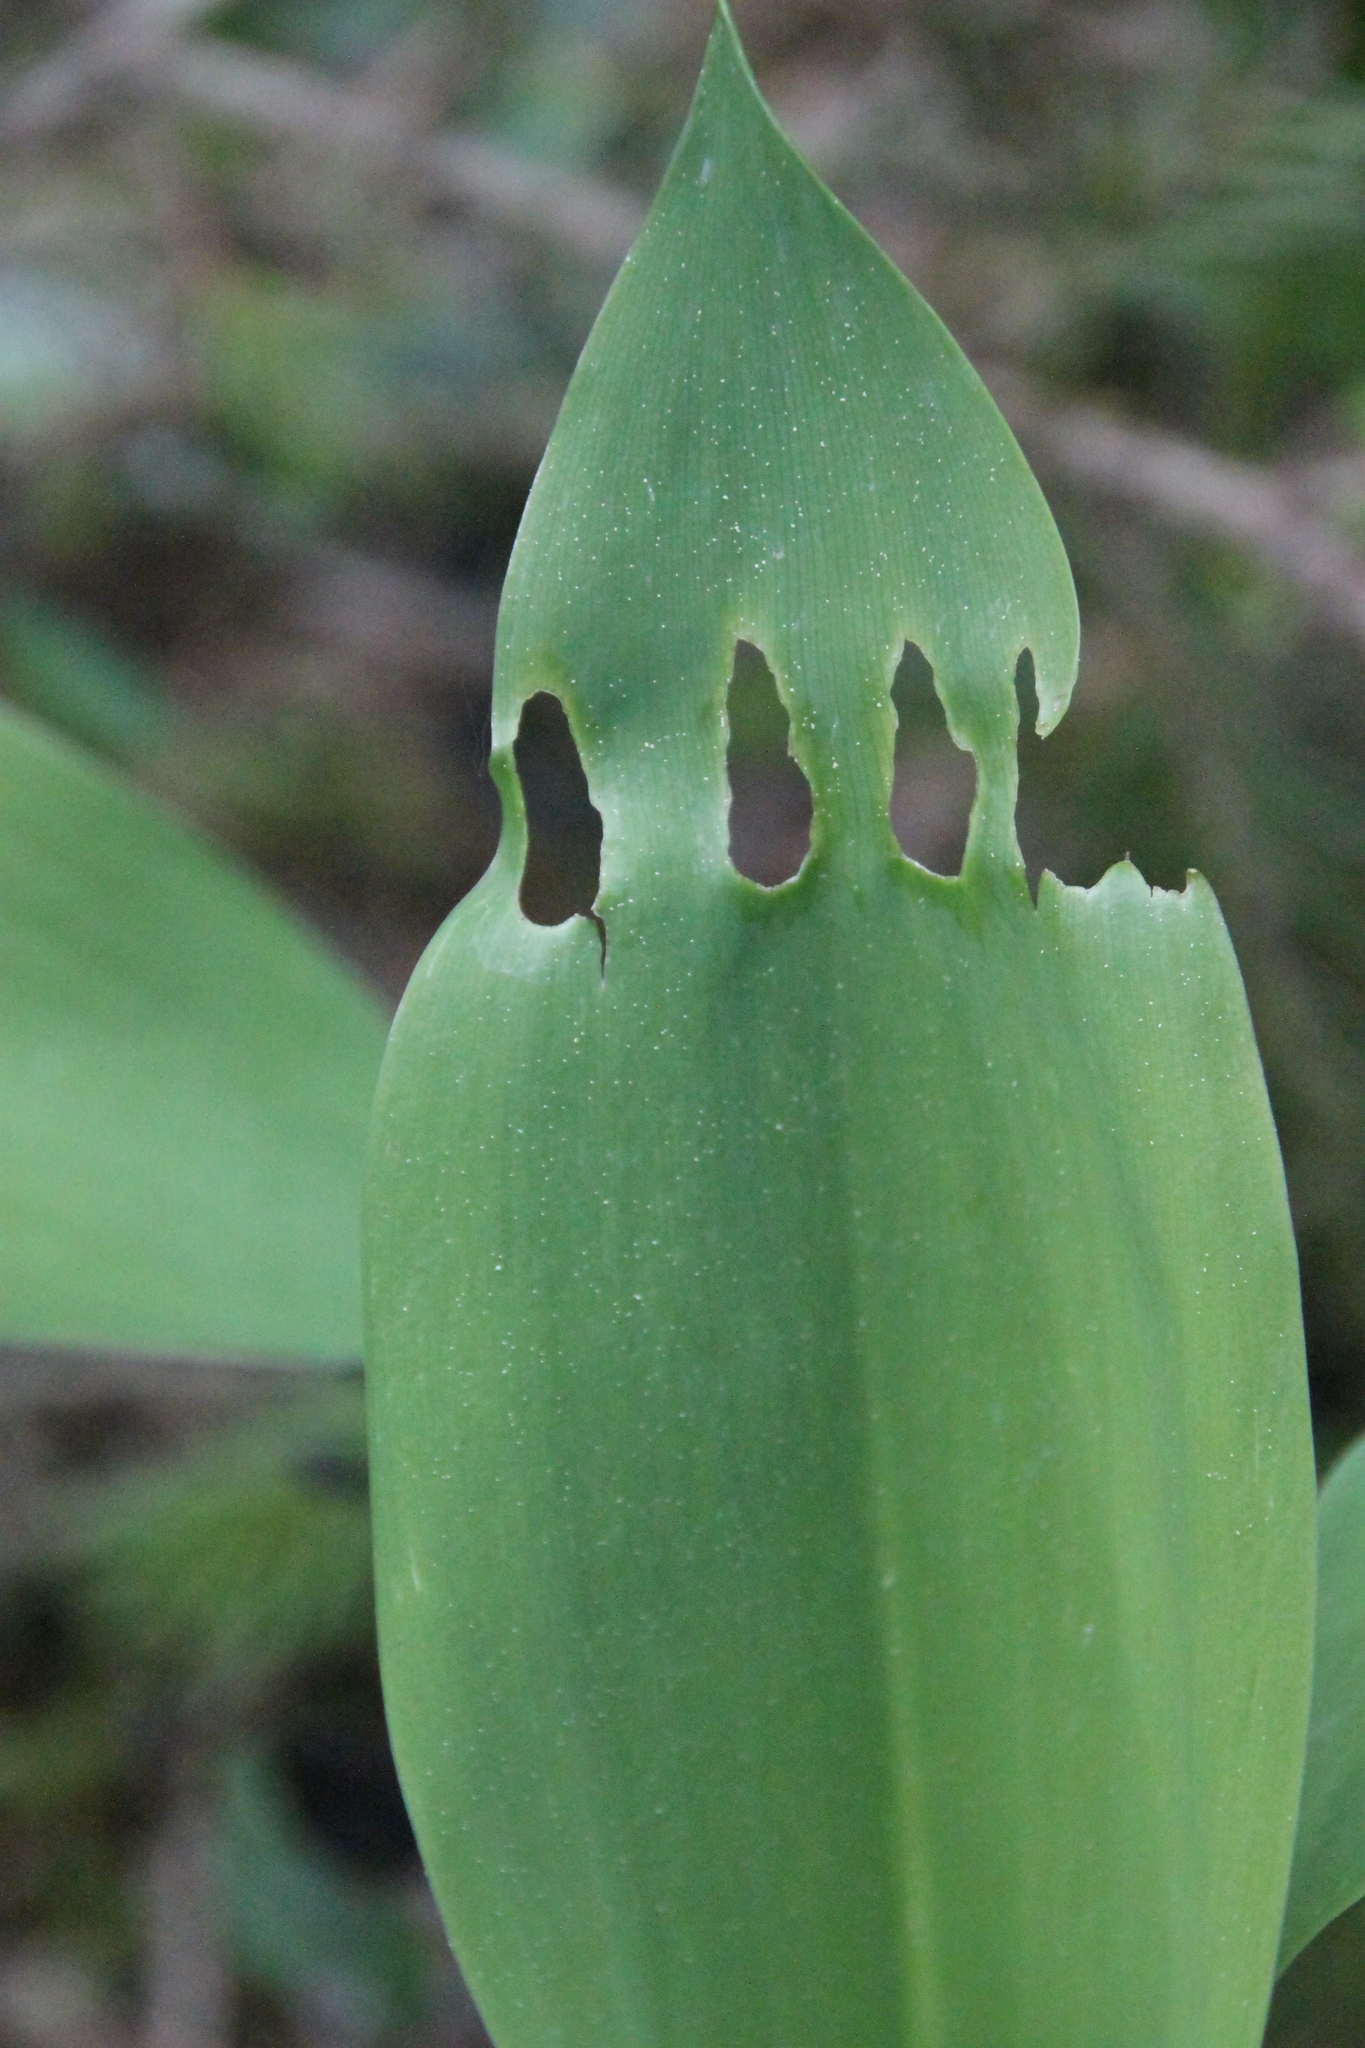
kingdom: Plantae
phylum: Tracheophyta
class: Liliopsida
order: Asparagales
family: Asparagaceae
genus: Convallaria
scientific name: Convallaria majalis
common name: Lily-of-the-valley
